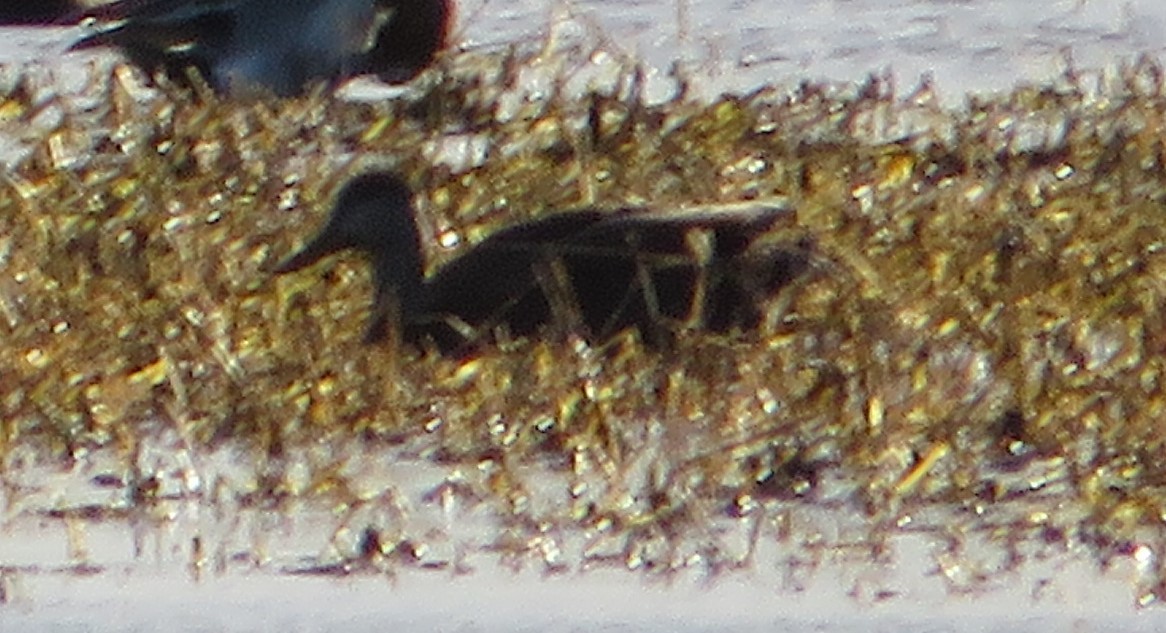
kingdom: Animalia
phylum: Chordata
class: Aves
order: Anseriformes
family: Anatidae
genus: Anas
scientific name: Anas rubripes
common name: American black duck
